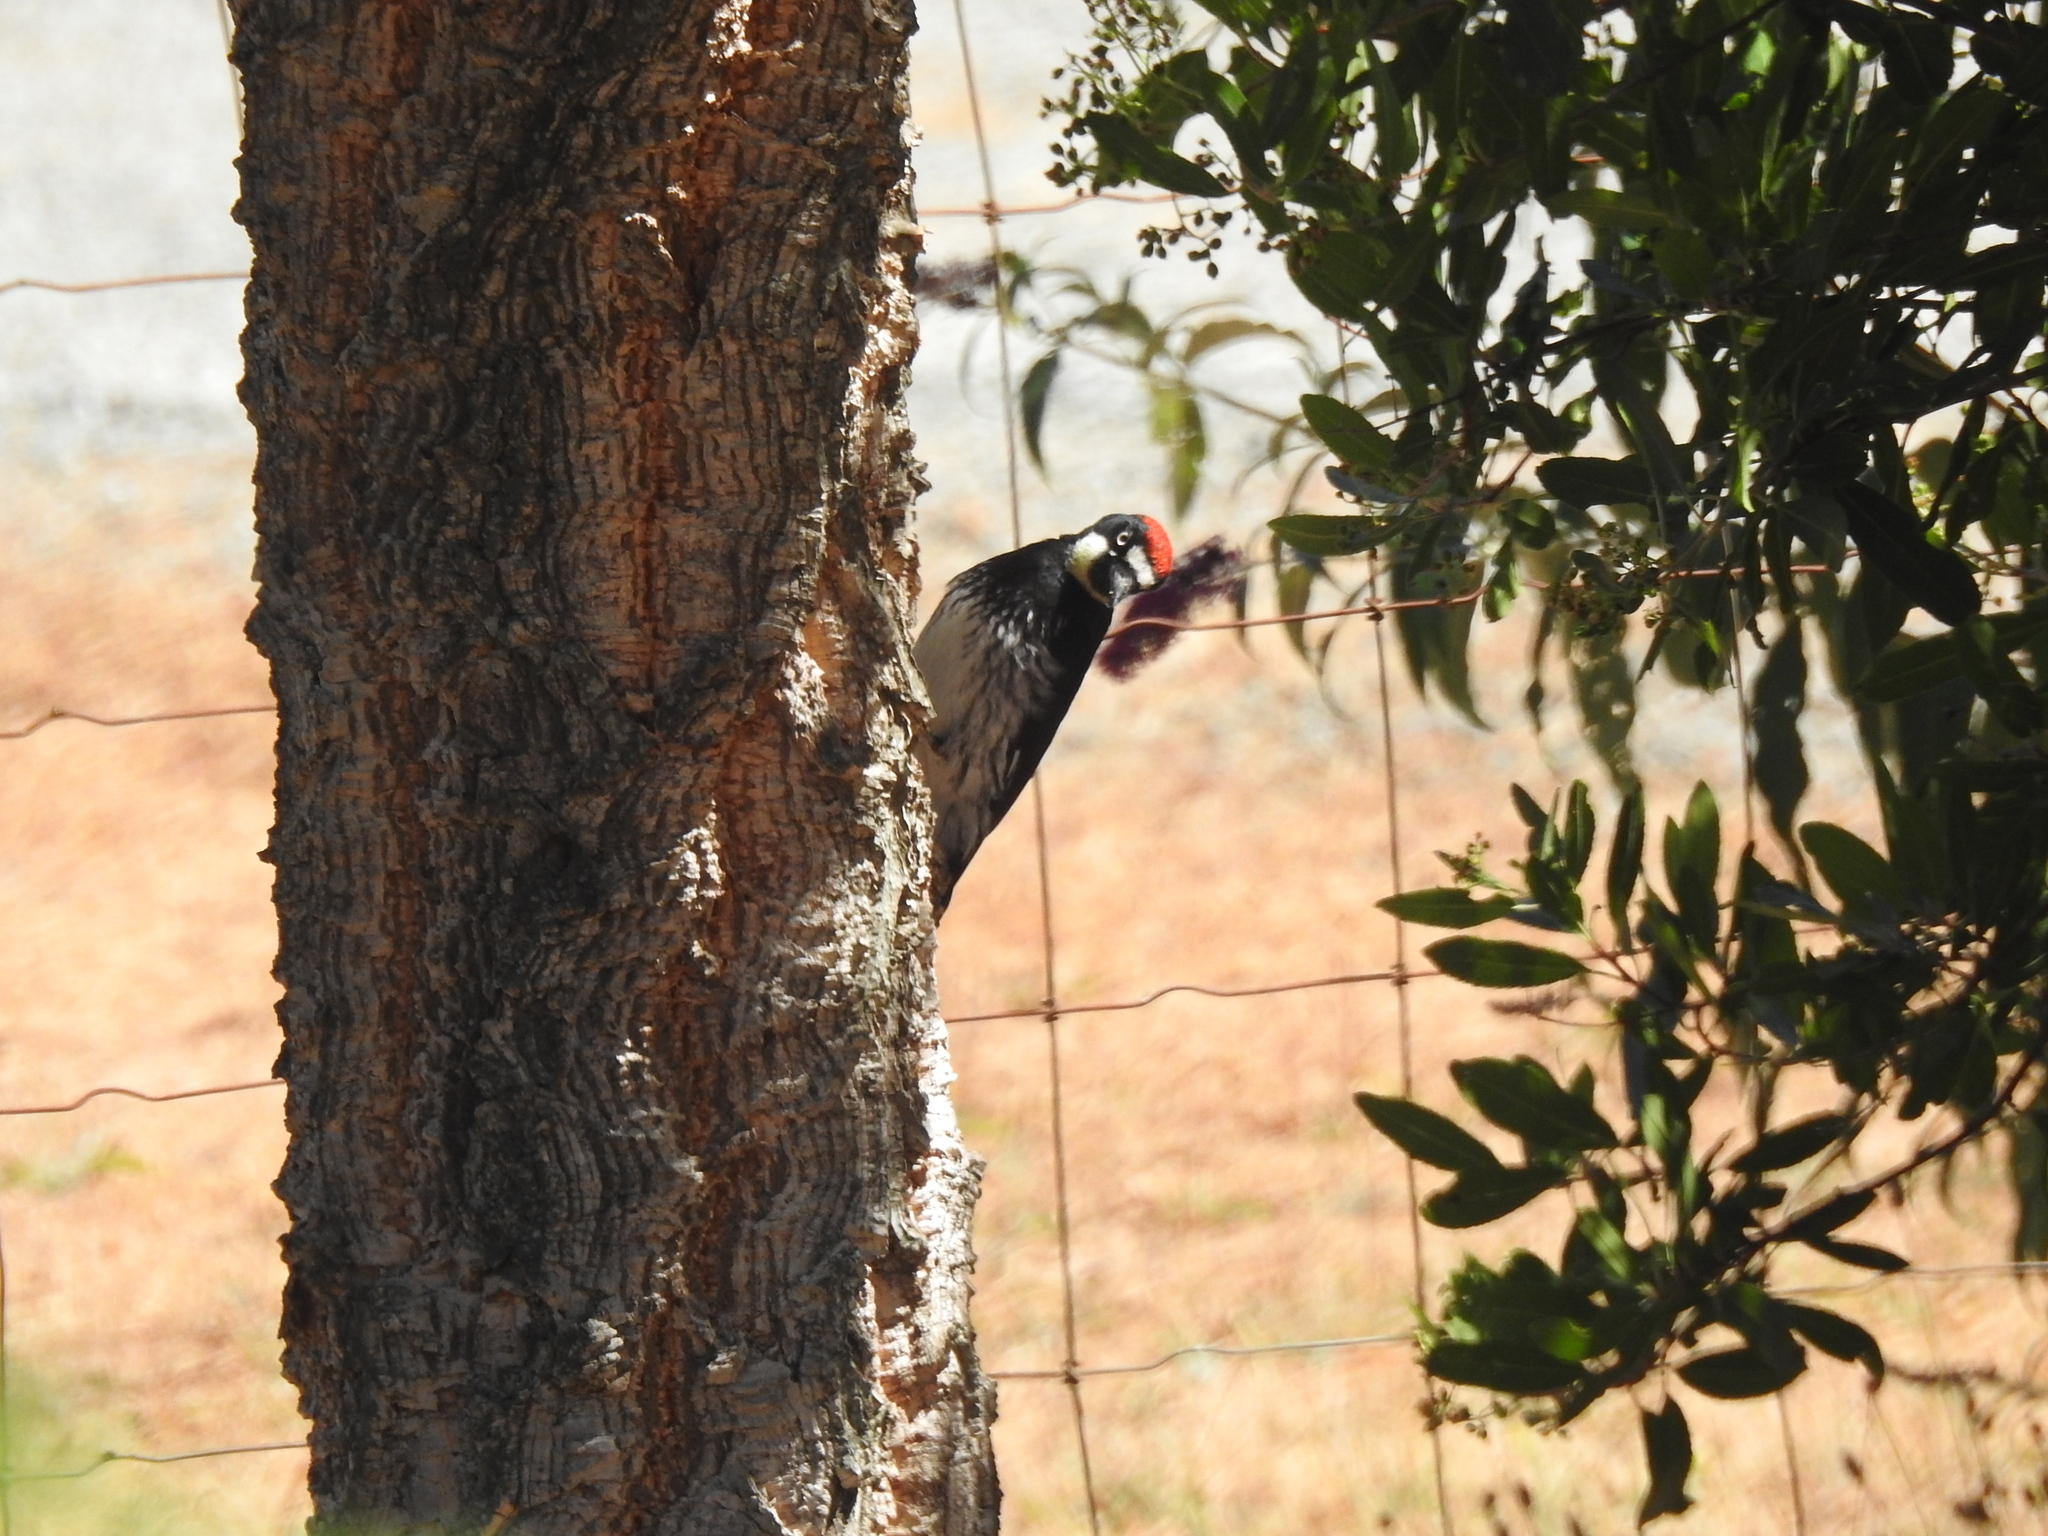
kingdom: Animalia
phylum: Chordata
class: Aves
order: Piciformes
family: Picidae
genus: Melanerpes
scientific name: Melanerpes formicivorus
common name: Acorn woodpecker
